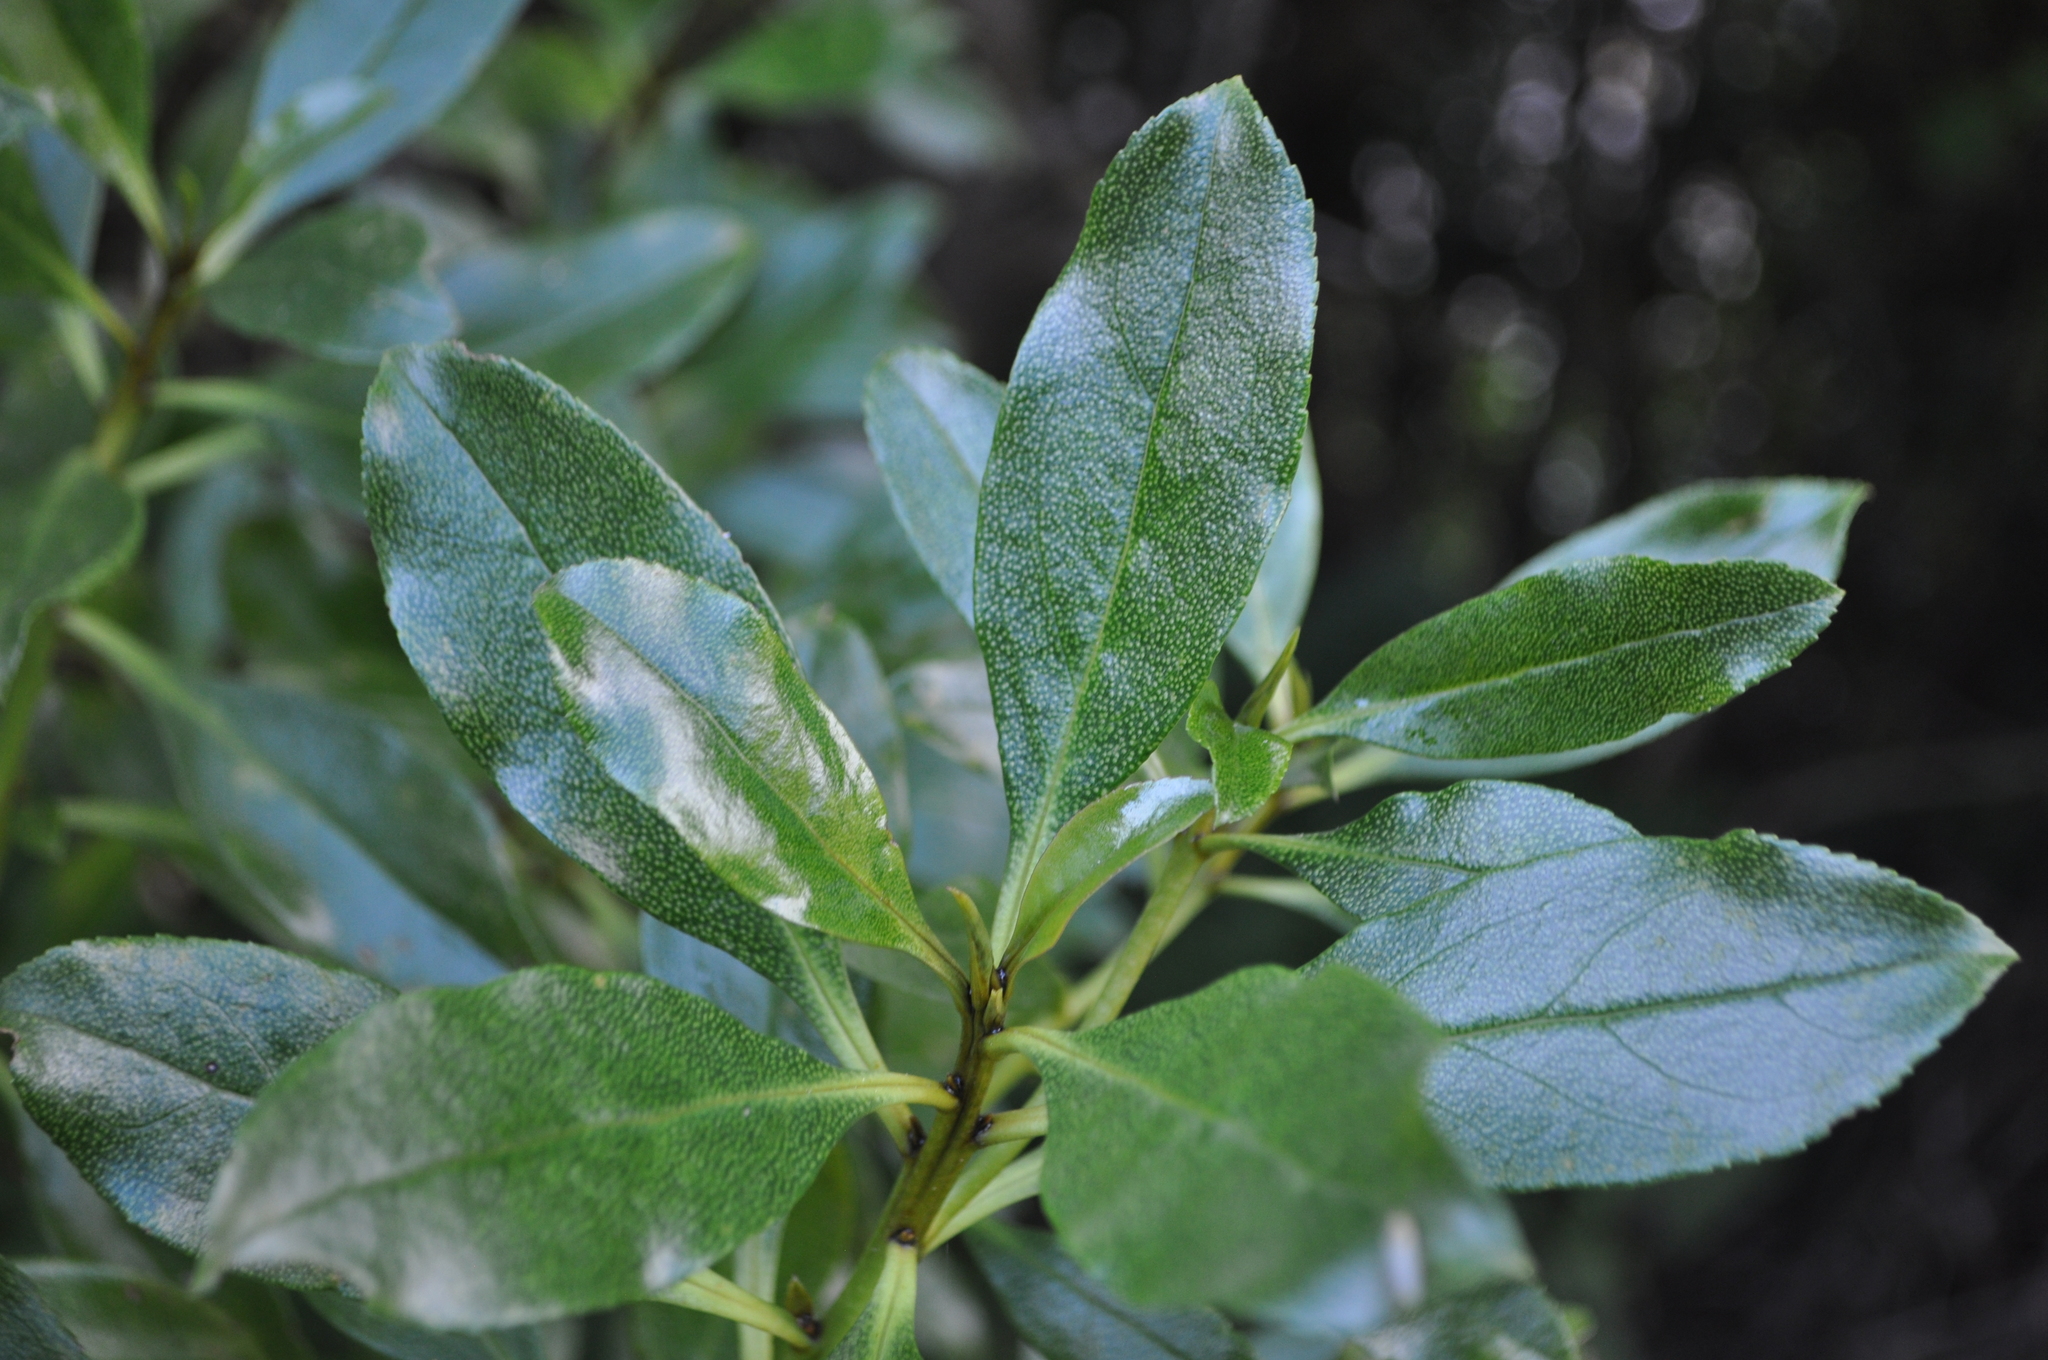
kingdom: Plantae
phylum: Tracheophyta
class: Magnoliopsida
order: Lamiales
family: Scrophulariaceae
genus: Myoporum
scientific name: Myoporum laetum
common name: Ngaio tree
